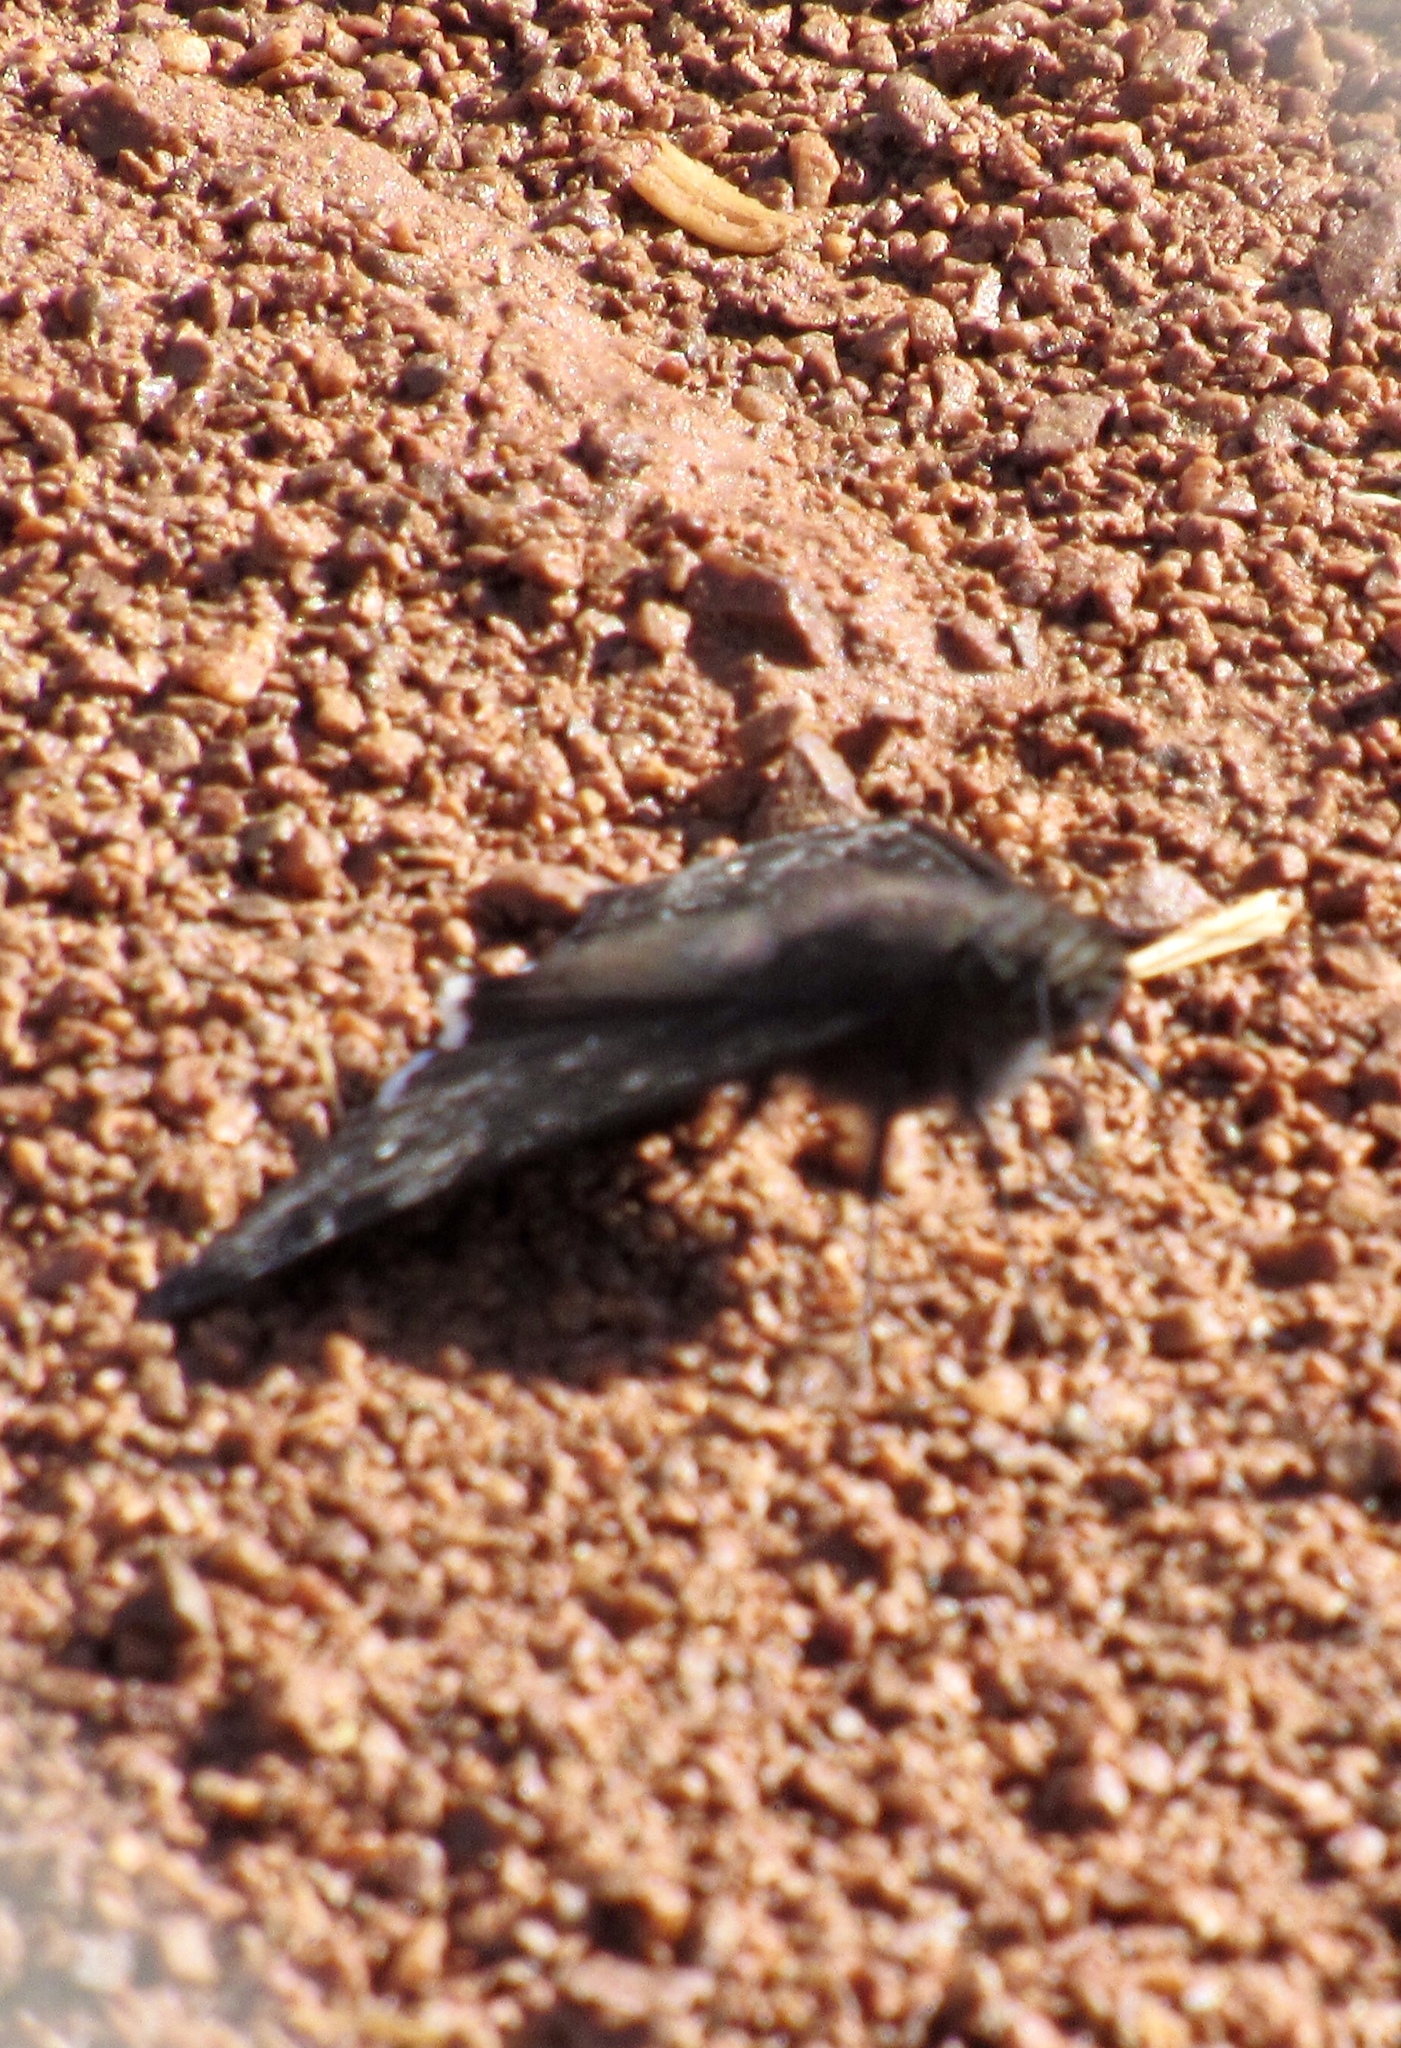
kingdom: Animalia
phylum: Arthropoda
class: Insecta
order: Lepidoptera
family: Hesperiidae
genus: Erynnis
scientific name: Erynnis funeralis
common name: Funereal duskywing
